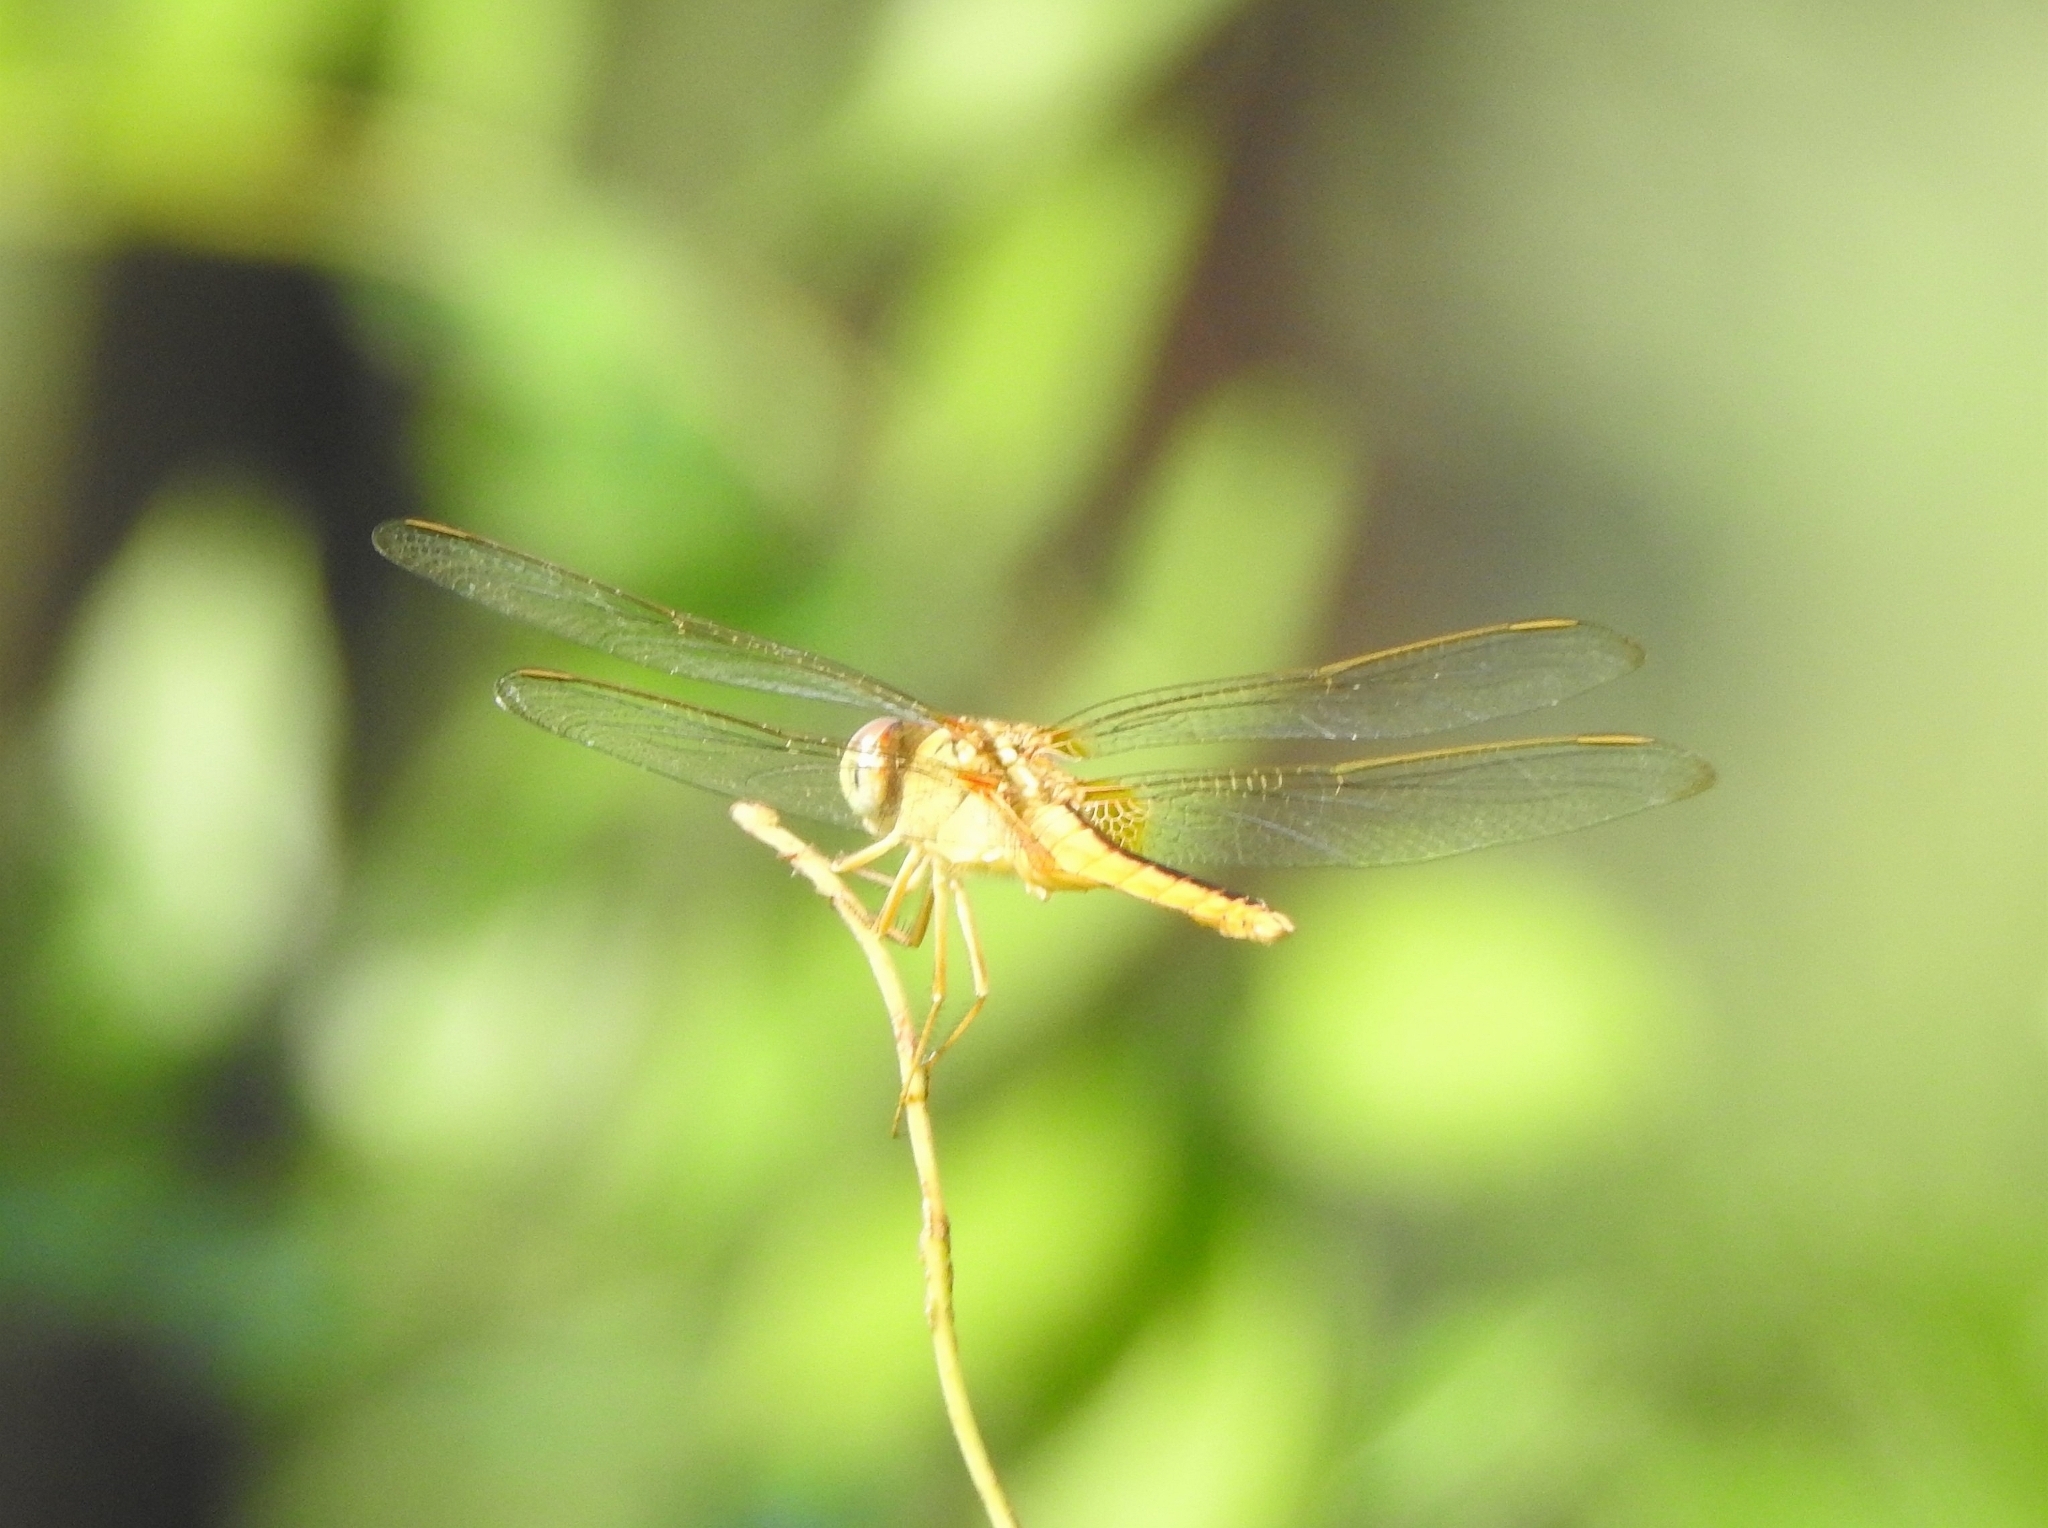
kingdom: Animalia
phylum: Arthropoda
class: Insecta
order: Odonata
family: Libellulidae
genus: Crocothemis
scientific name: Crocothemis servilia
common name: Scarlet skimmer
